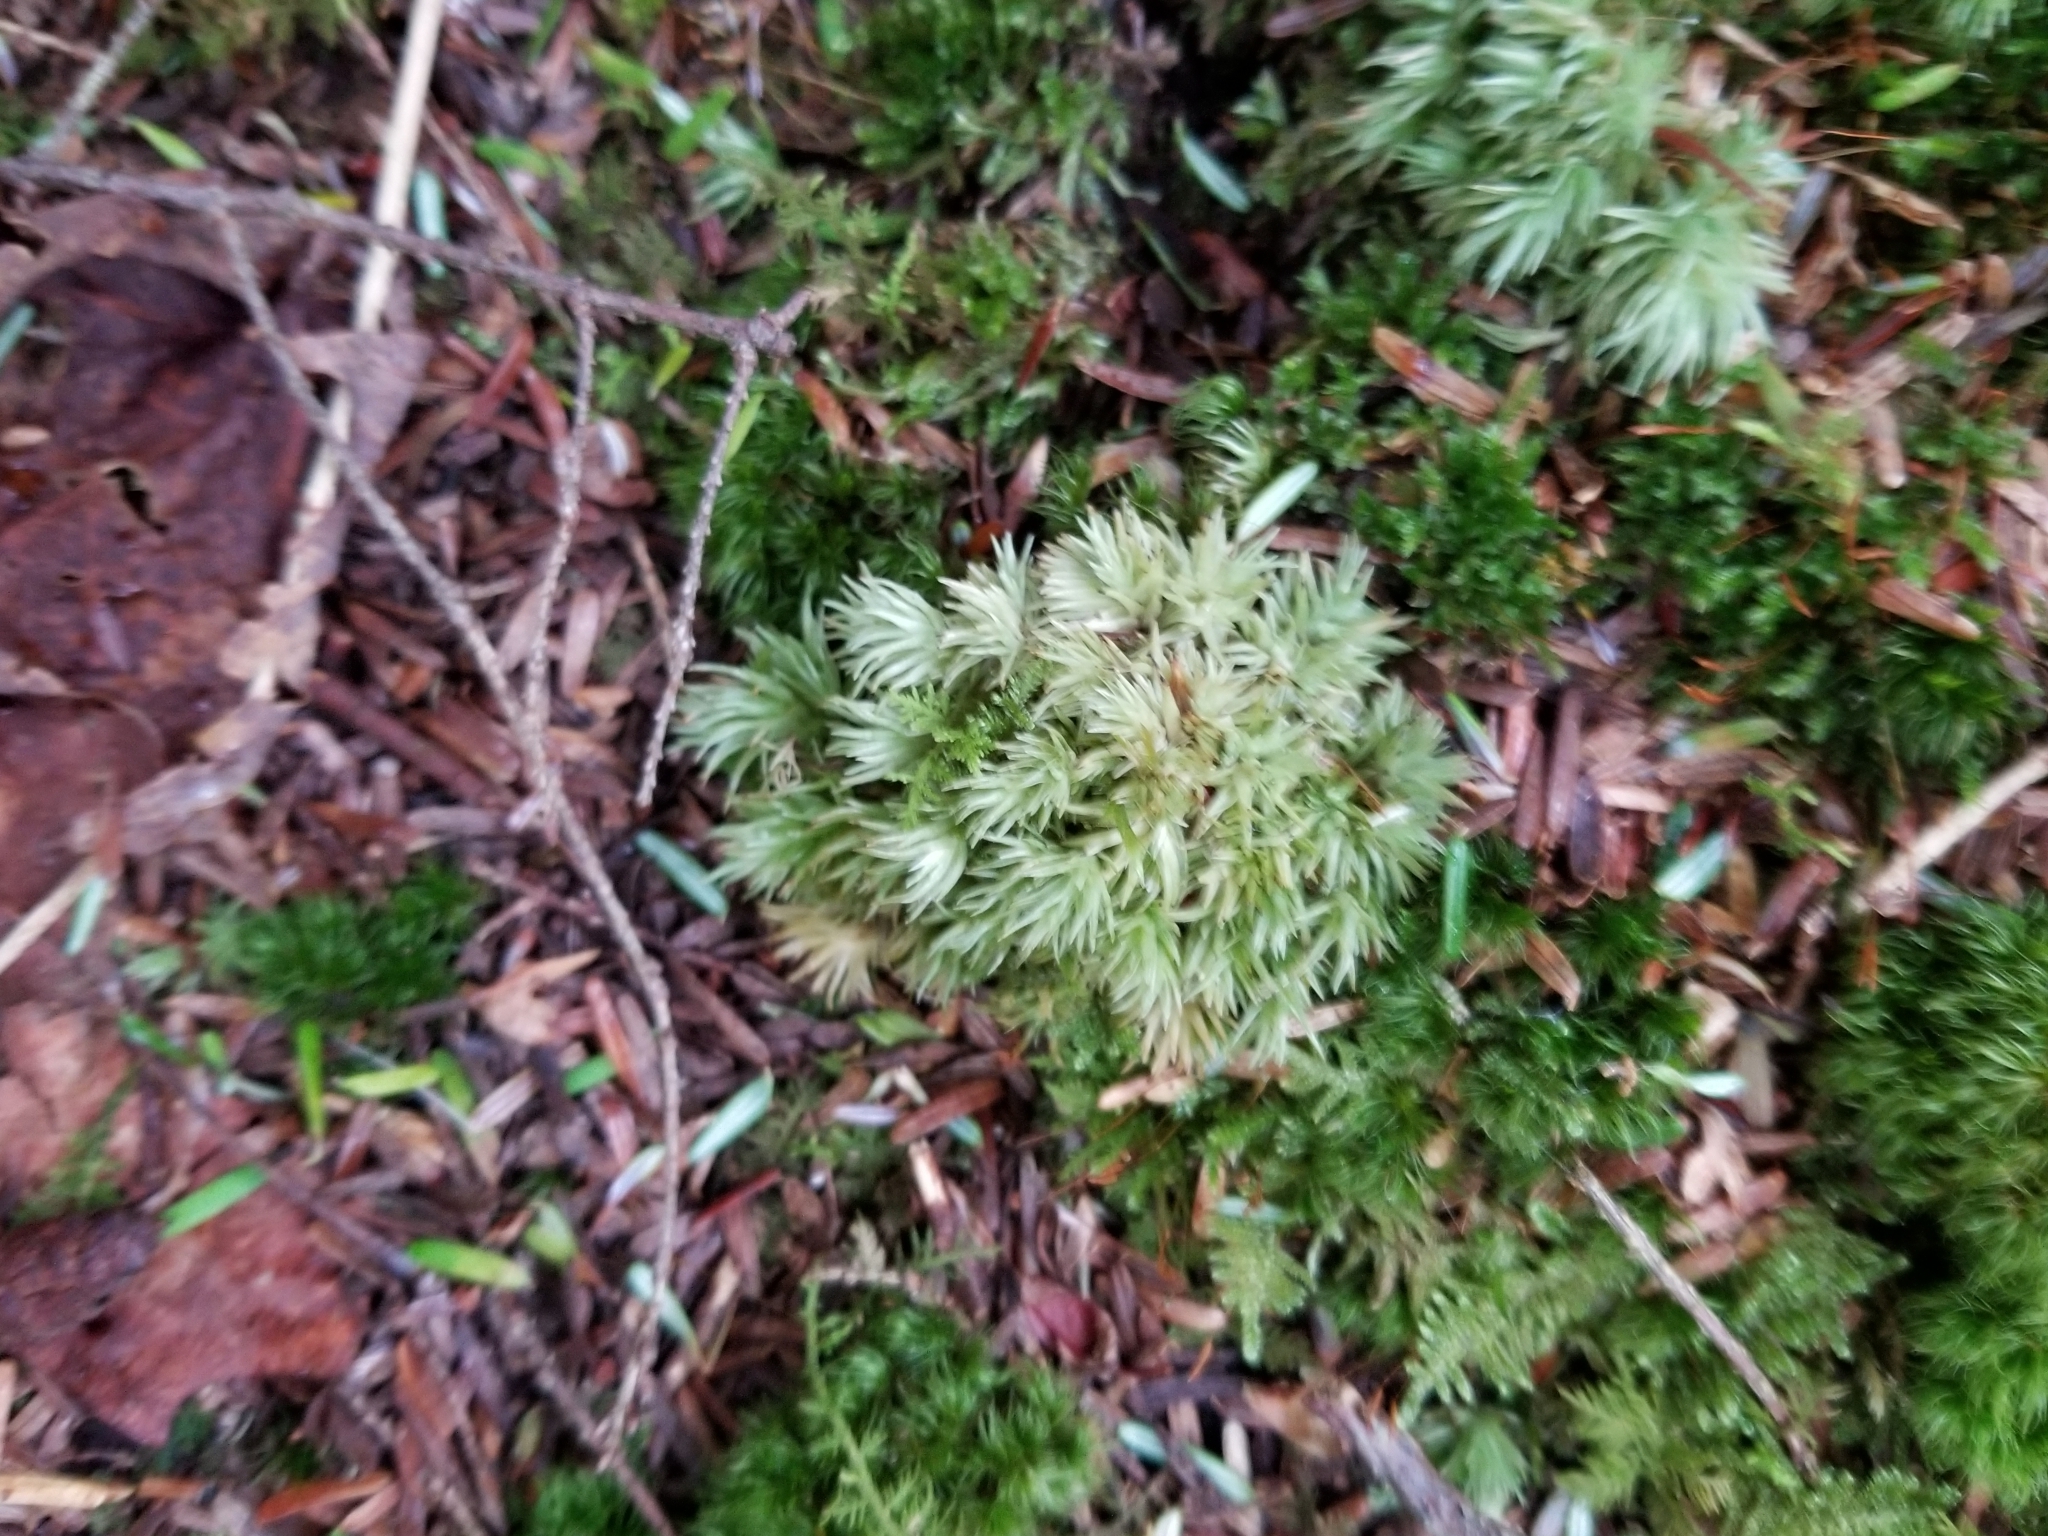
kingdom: Plantae
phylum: Bryophyta
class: Bryopsida
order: Dicranales
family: Leucobryaceae
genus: Leucobryum
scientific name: Leucobryum glaucum
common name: Large white-moss
